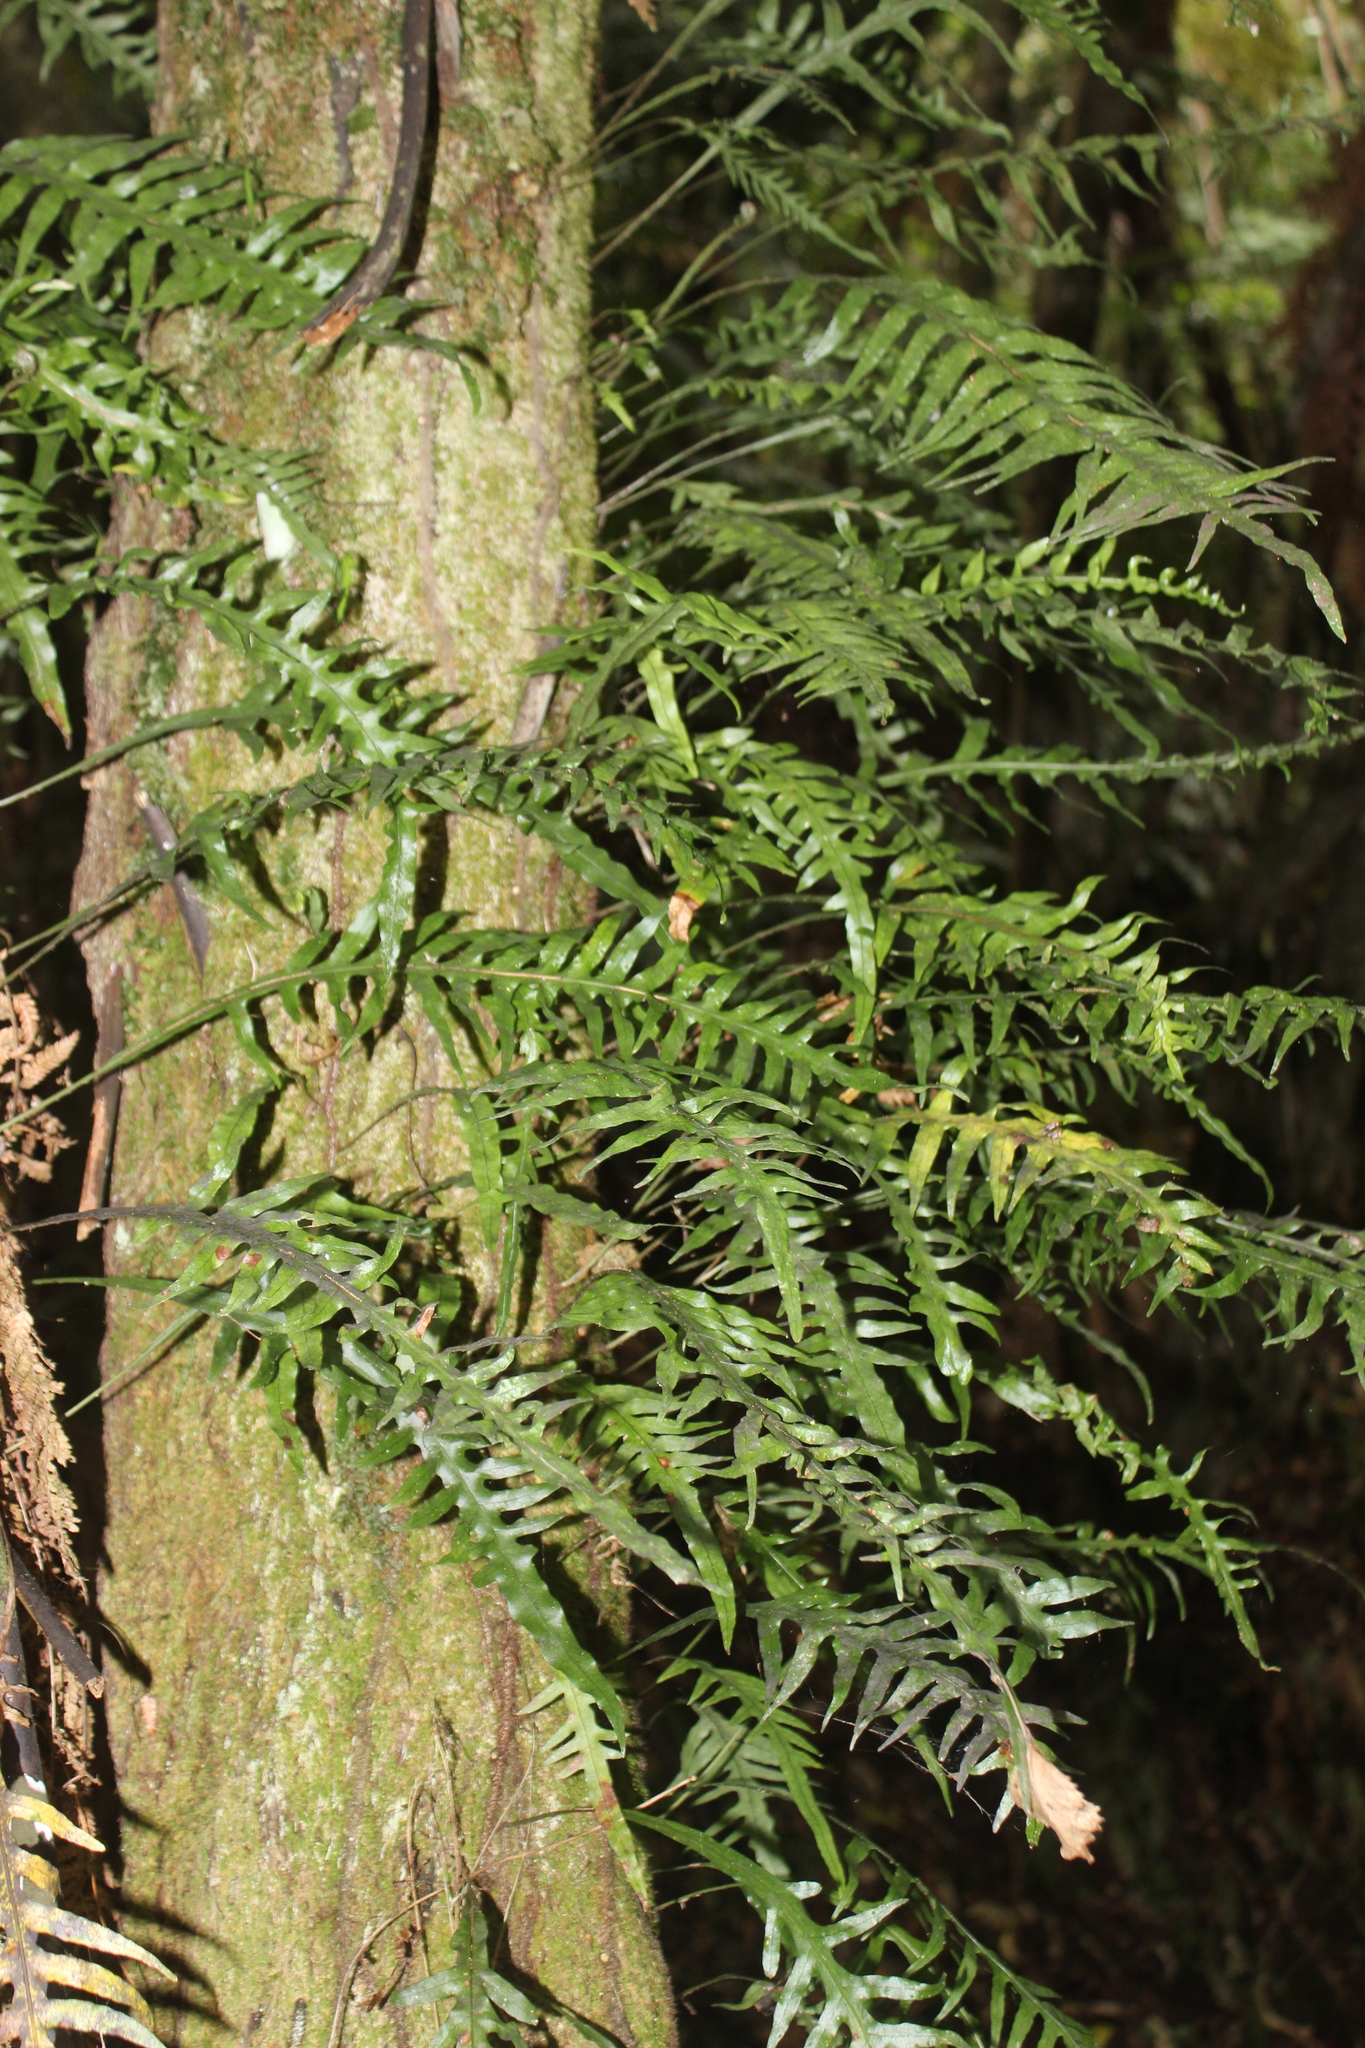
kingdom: Plantae
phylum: Tracheophyta
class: Polypodiopsida
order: Polypodiales
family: Polypodiaceae
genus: Lecanopteris
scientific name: Lecanopteris scandens
